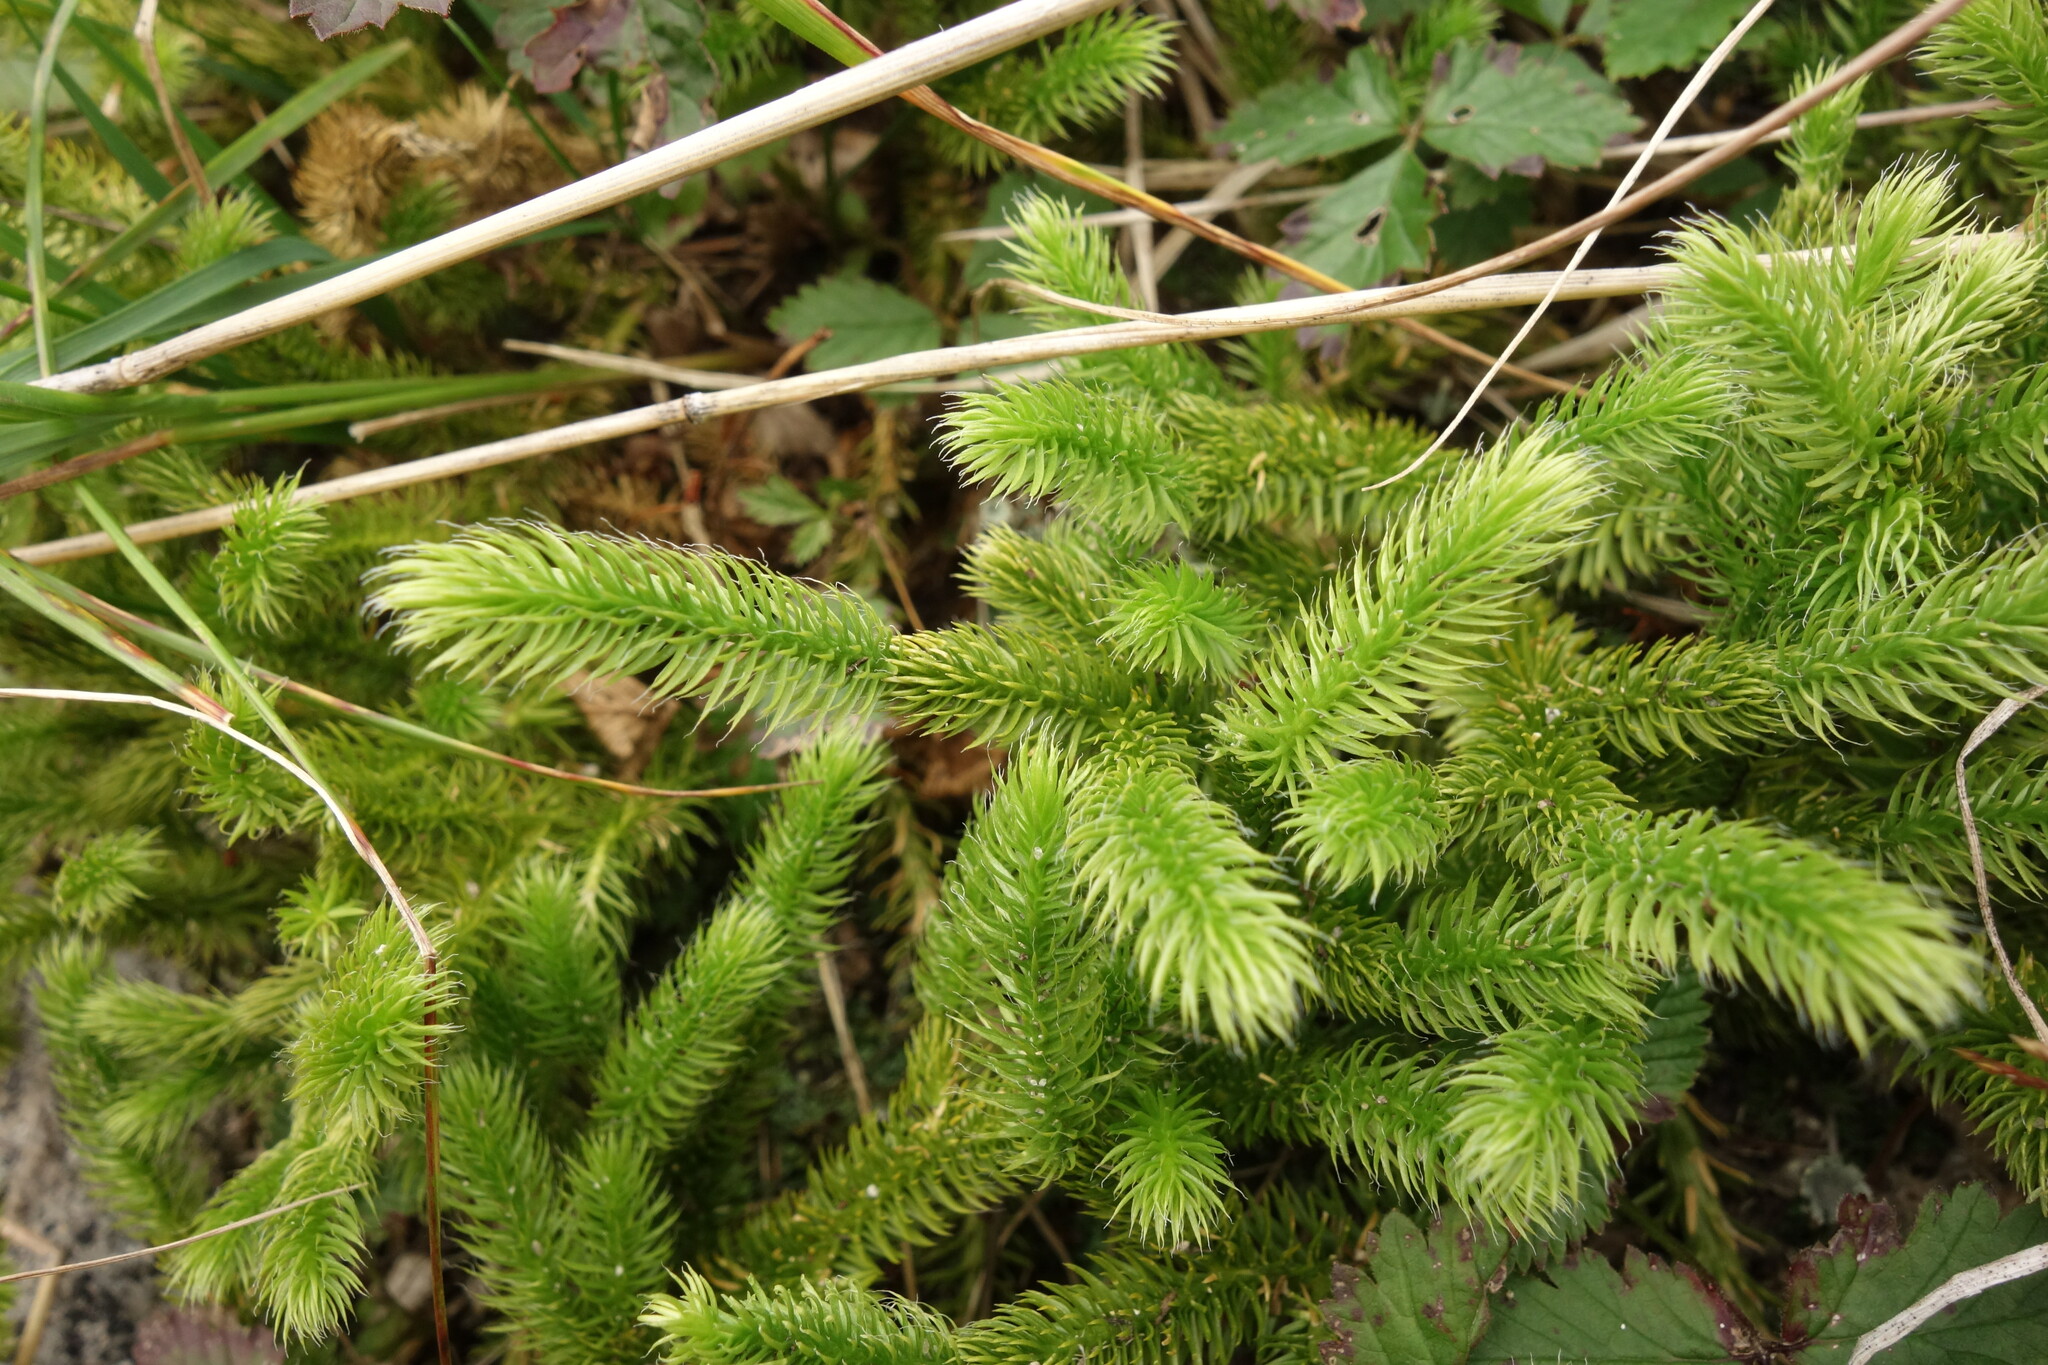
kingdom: Plantae
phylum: Tracheophyta
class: Lycopodiopsida
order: Lycopodiales
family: Lycopodiaceae
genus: Lycopodium
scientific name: Lycopodium clavatum
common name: Stag's-horn clubmoss
